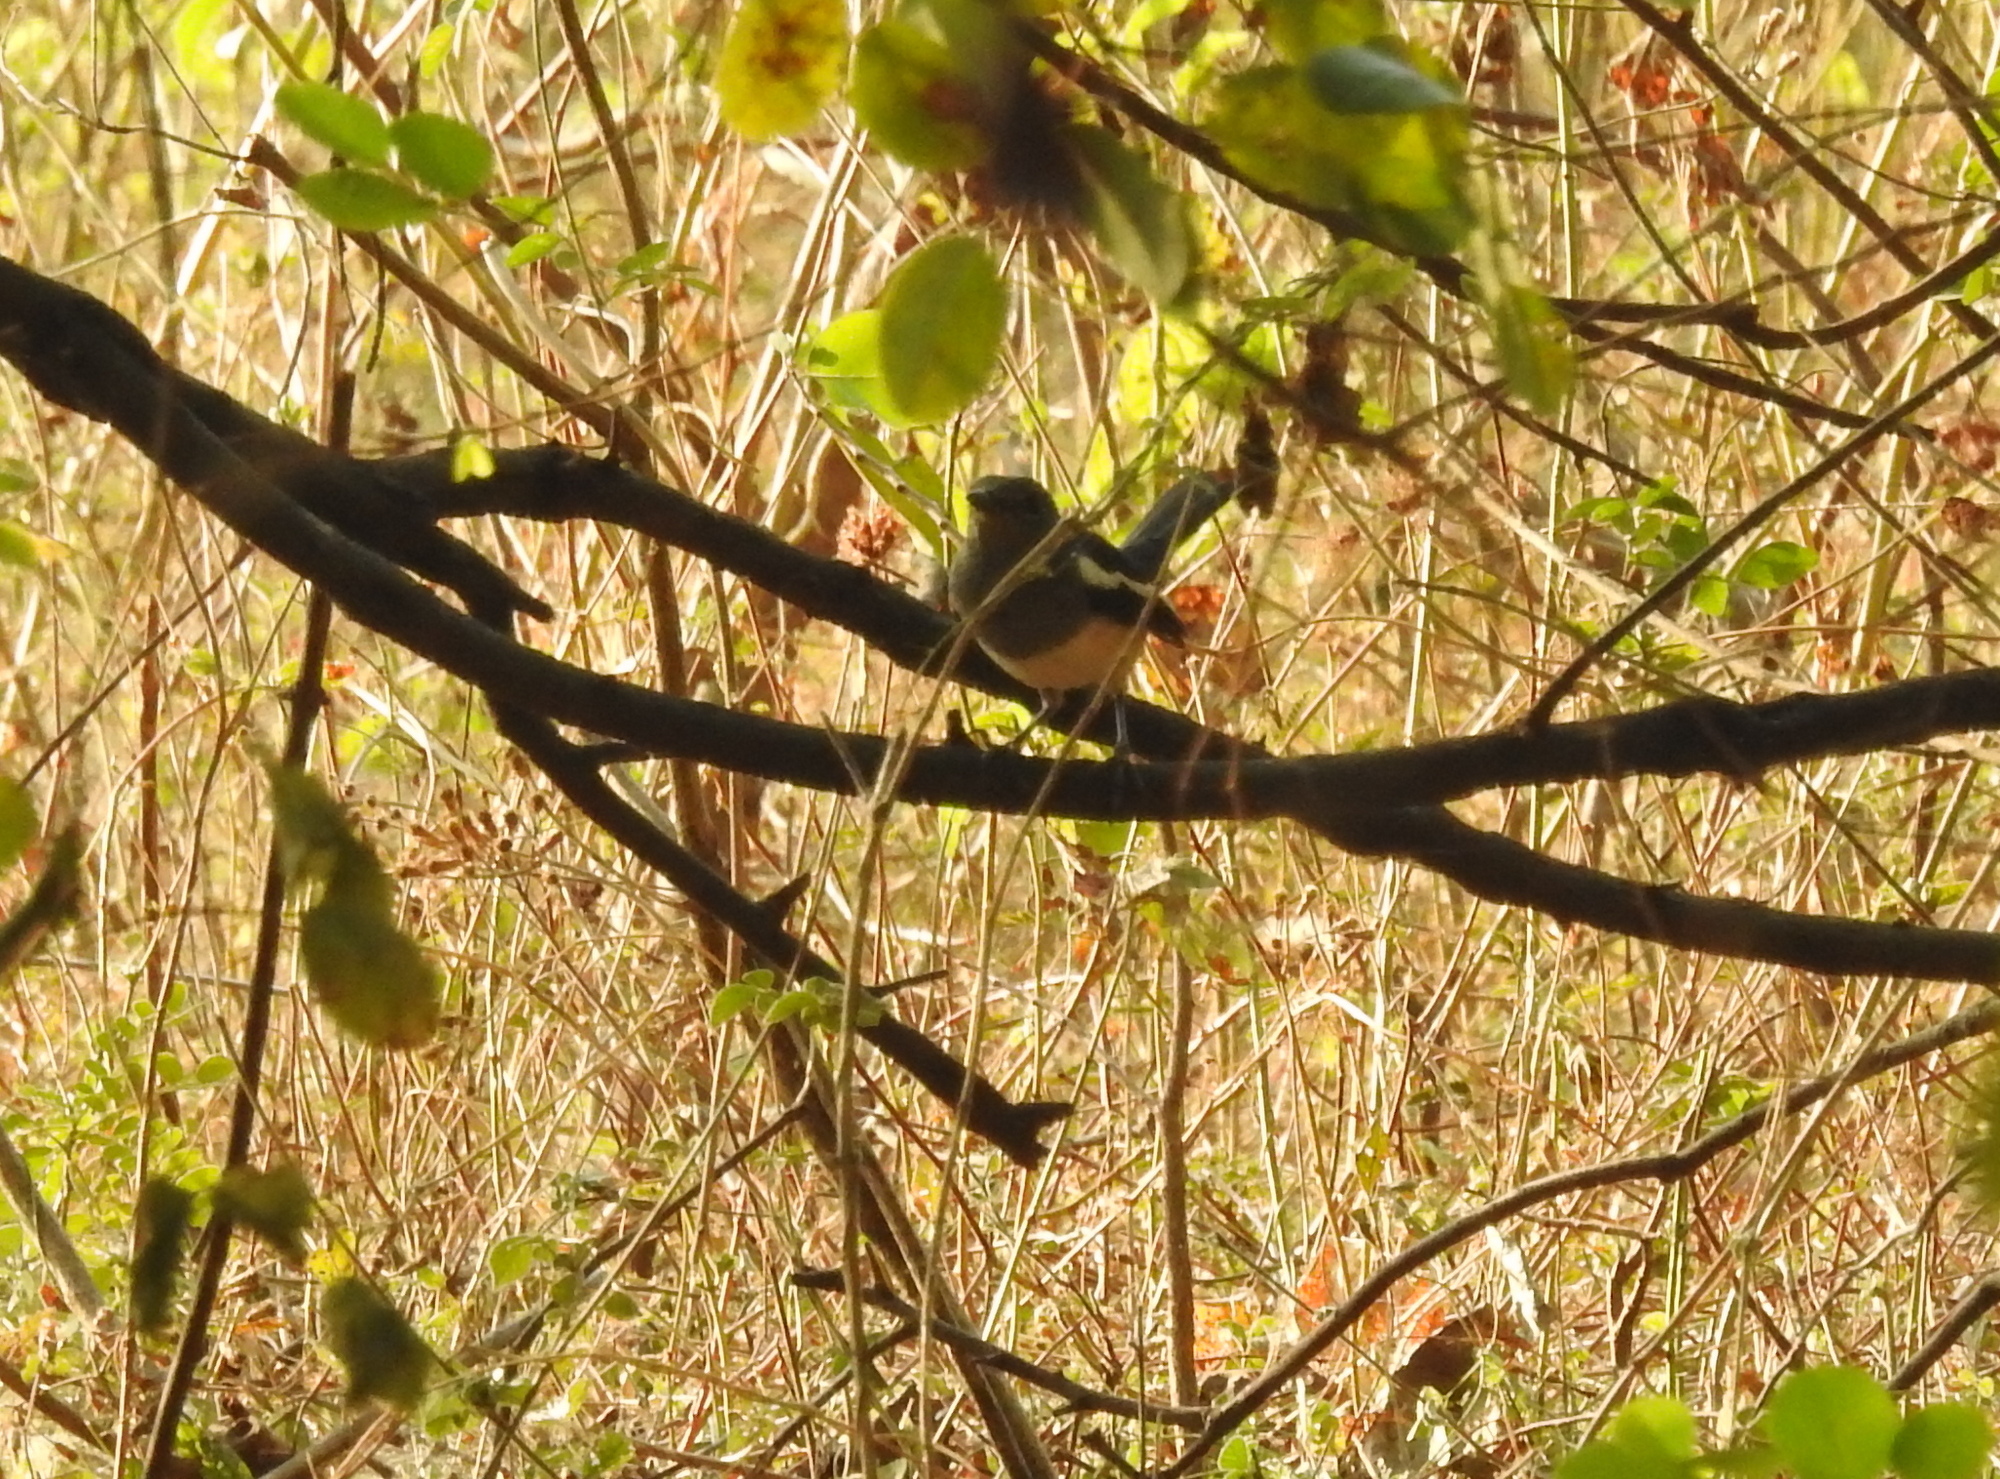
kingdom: Animalia
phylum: Chordata
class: Aves
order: Passeriformes
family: Muscicapidae
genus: Copsychus
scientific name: Copsychus saularis
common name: Oriental magpie-robin
